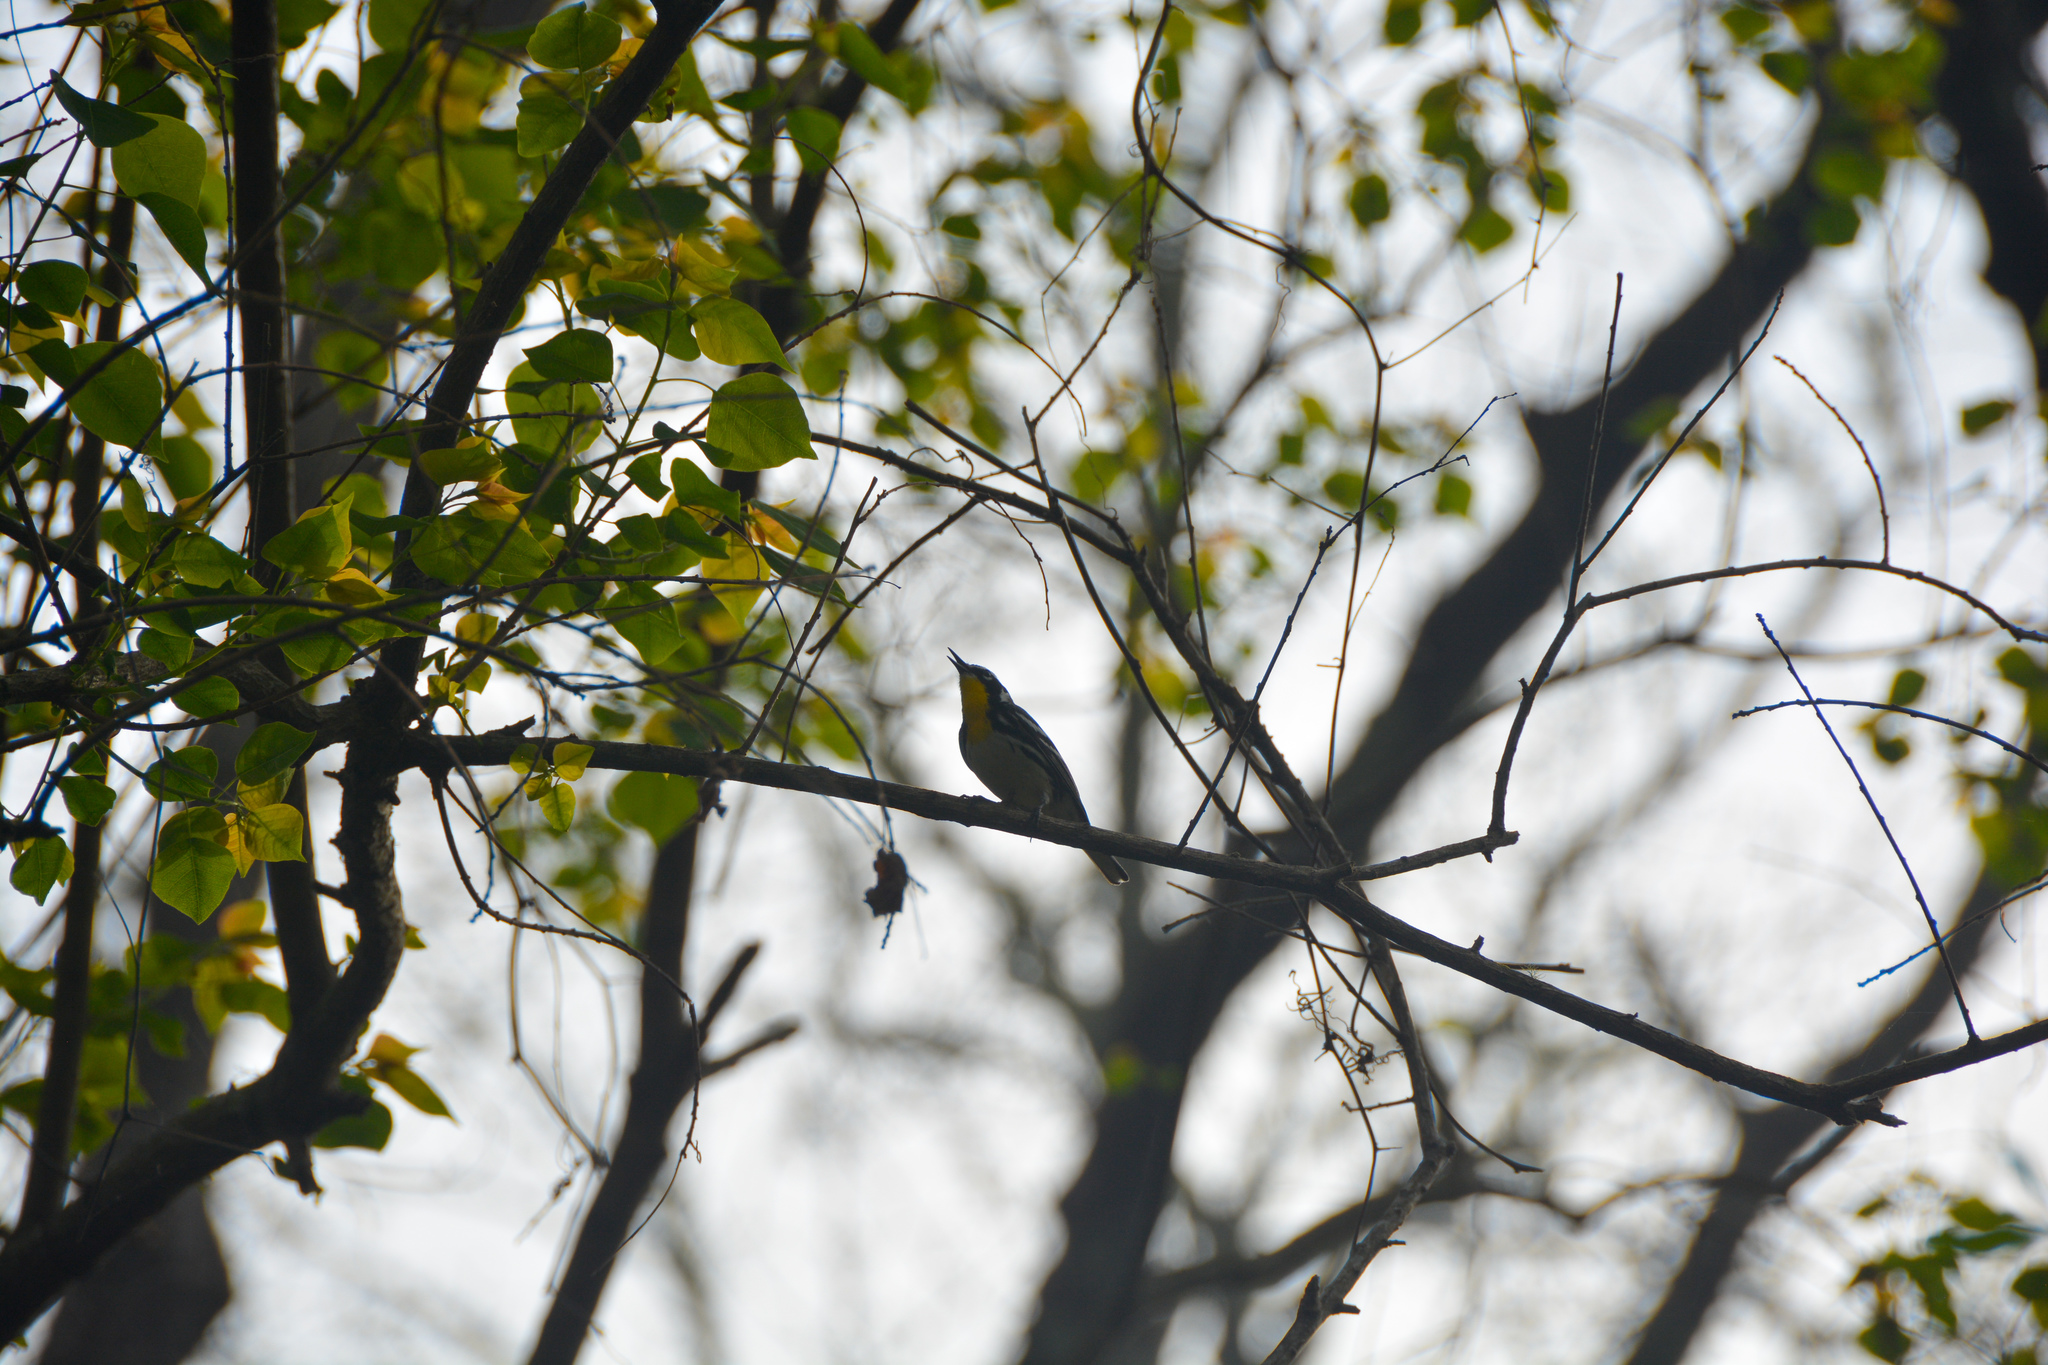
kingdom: Animalia
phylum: Chordata
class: Aves
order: Passeriformes
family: Parulidae
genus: Setophaga
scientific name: Setophaga dominica
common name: Yellow-throated warbler
